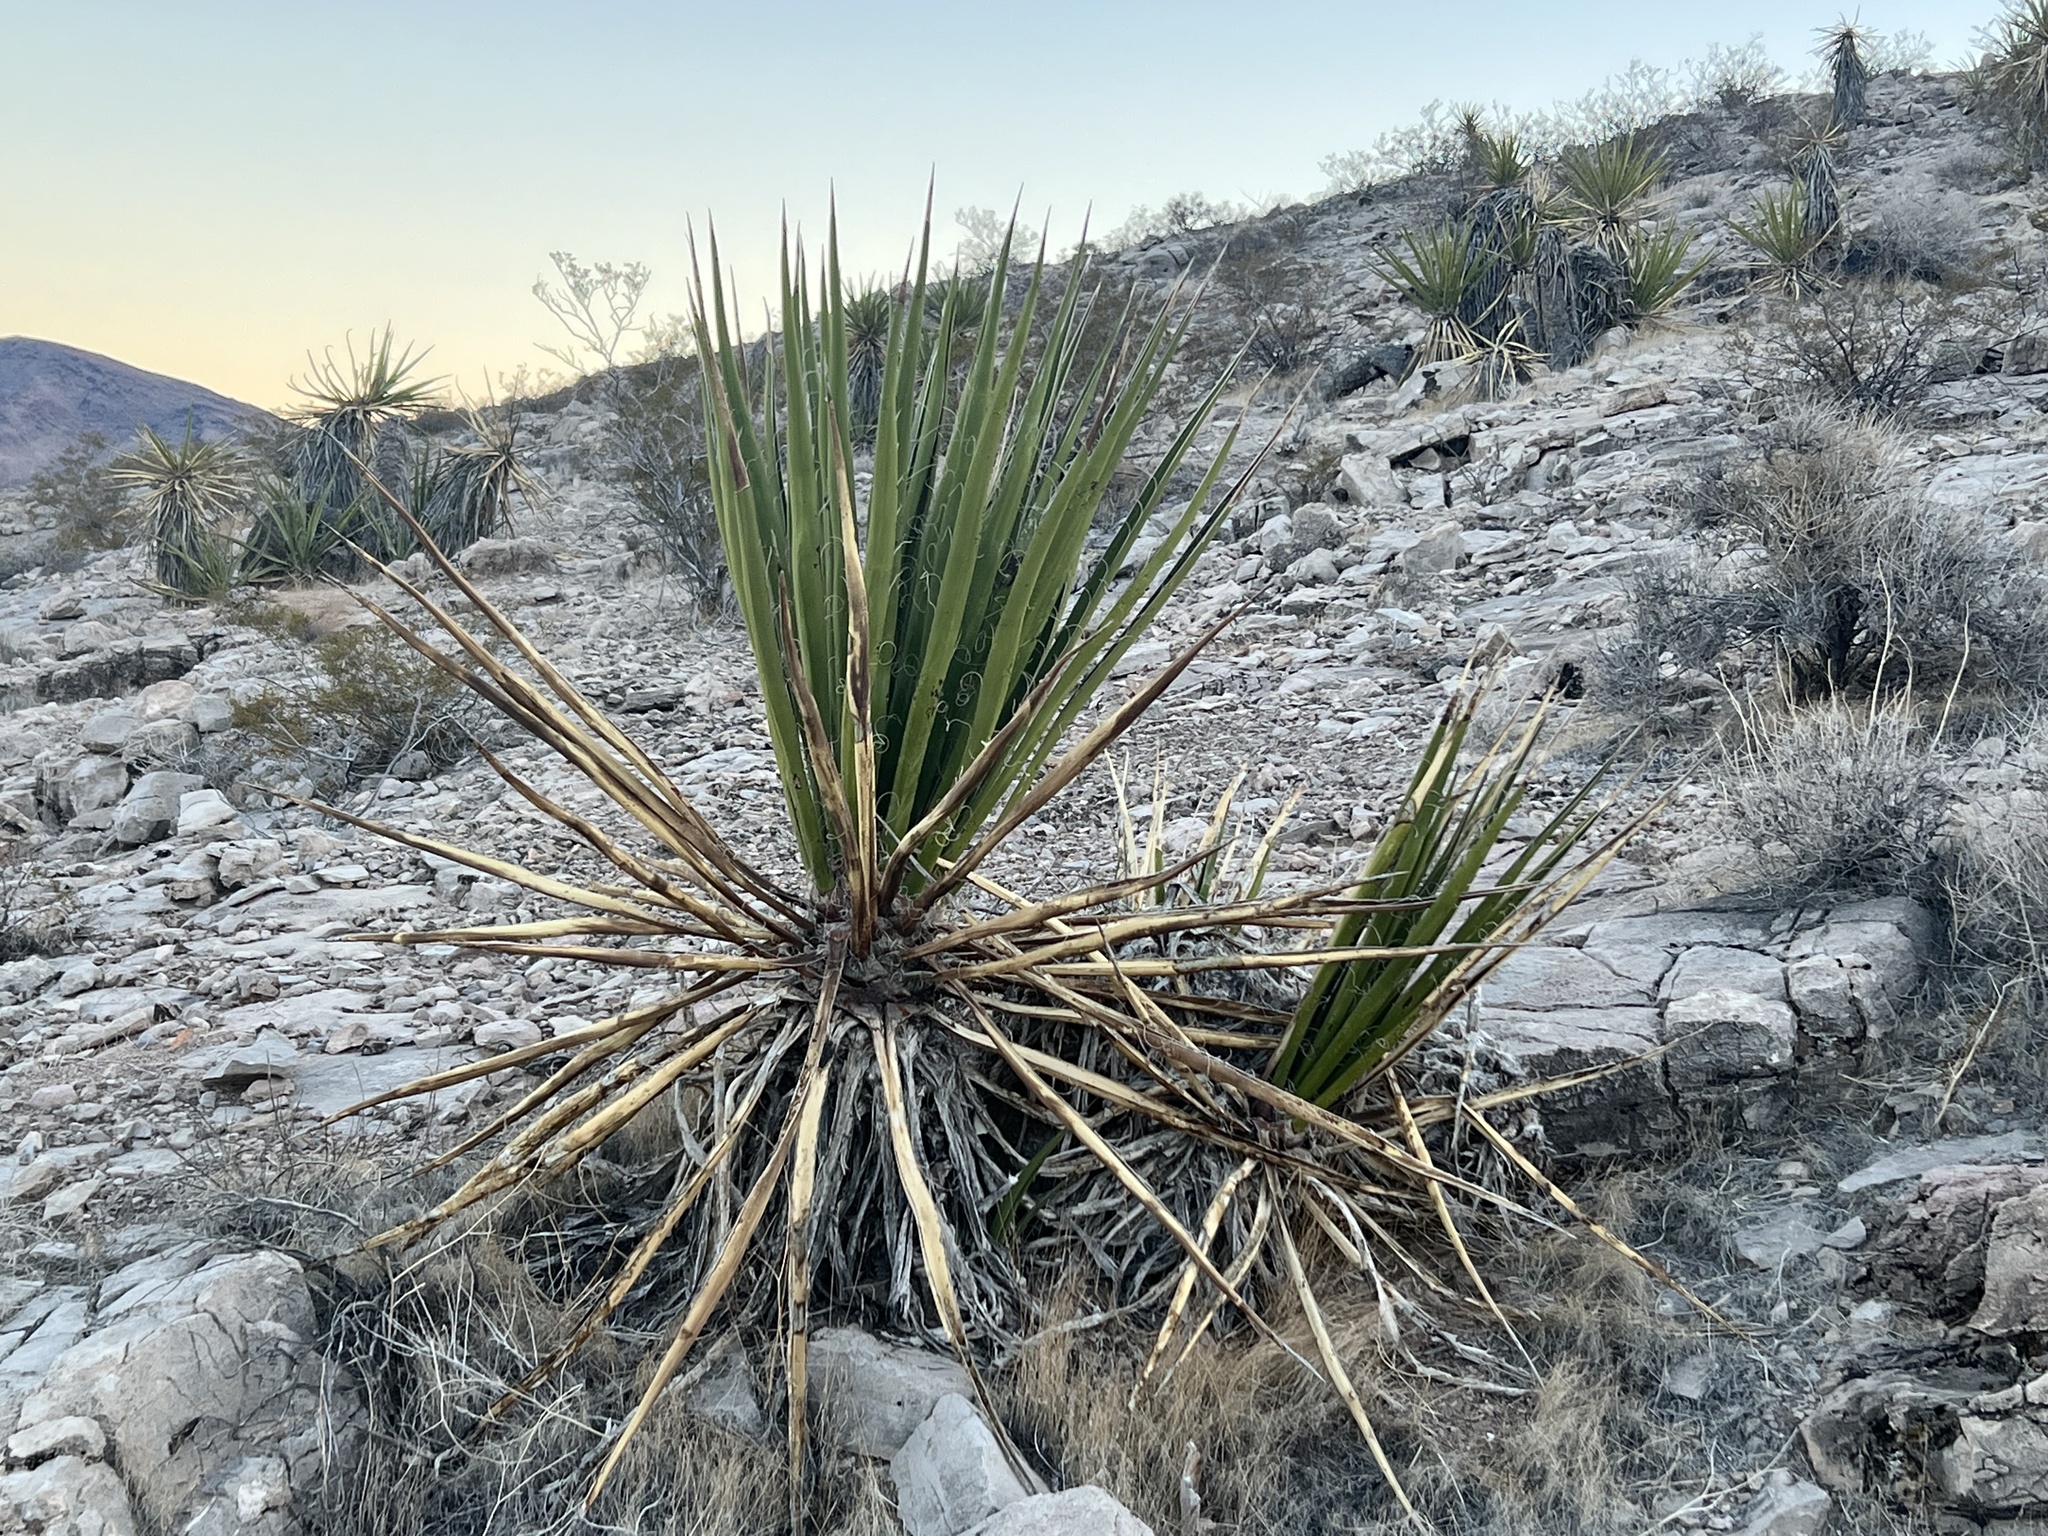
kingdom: Plantae
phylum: Tracheophyta
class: Liliopsida
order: Asparagales
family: Asparagaceae
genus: Yucca
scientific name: Yucca schidigera
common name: Mojave yucca
